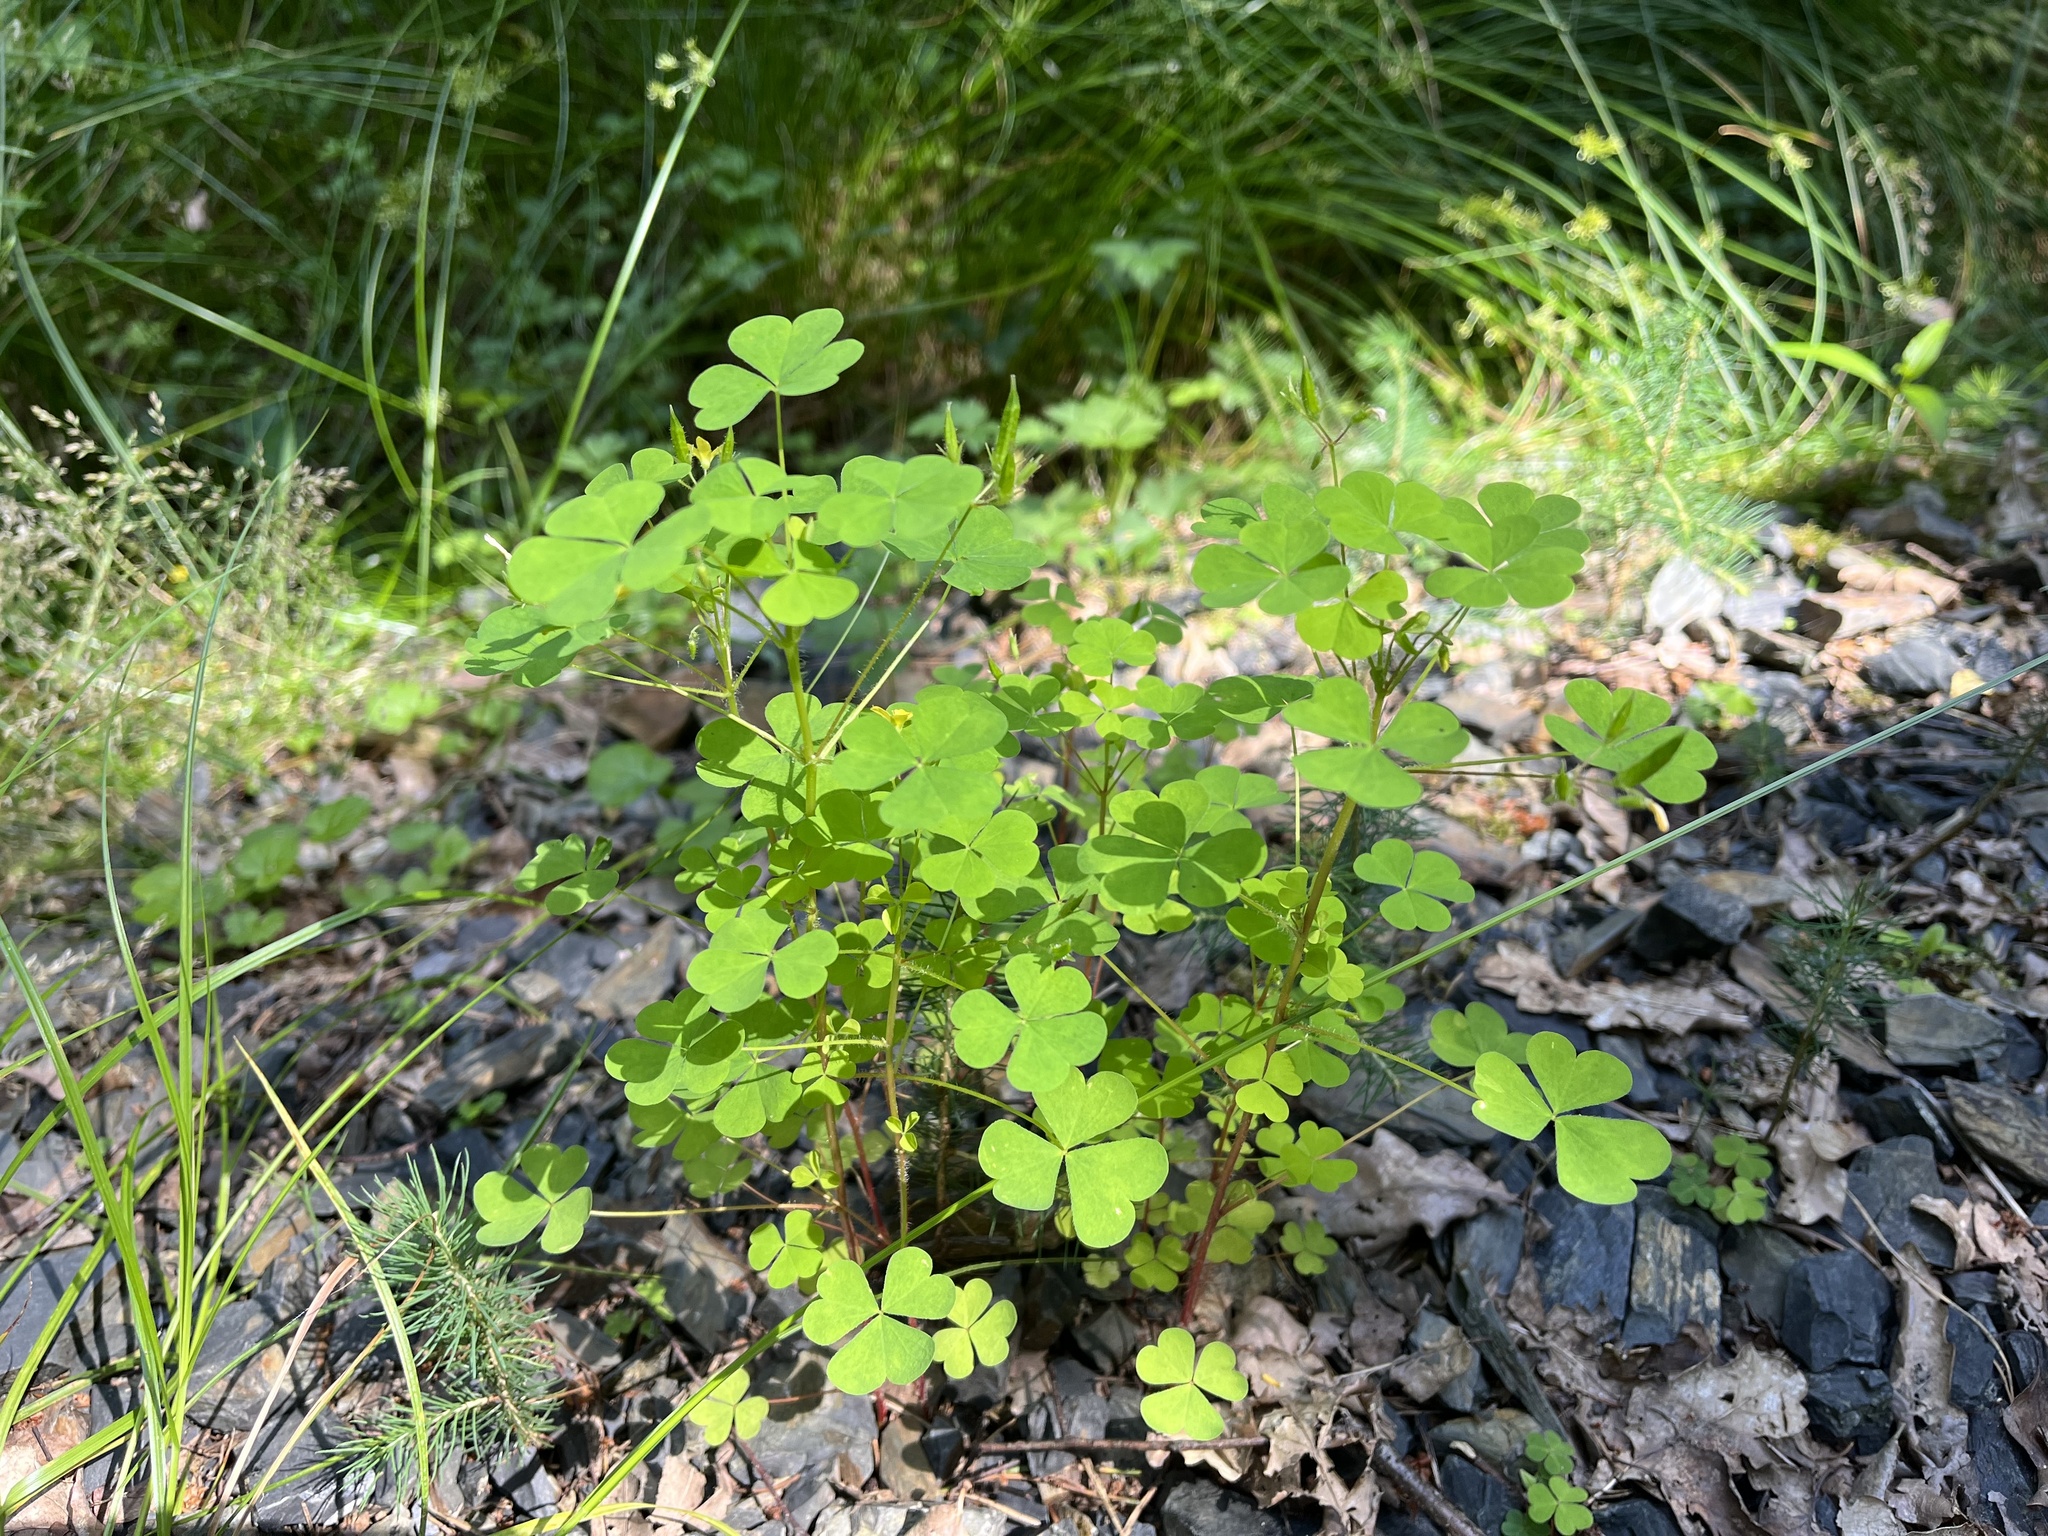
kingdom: Plantae
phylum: Tracheophyta
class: Magnoliopsida
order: Oxalidales
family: Oxalidaceae
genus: Oxalis
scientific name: Oxalis stricta
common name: Upright yellow-sorrel
